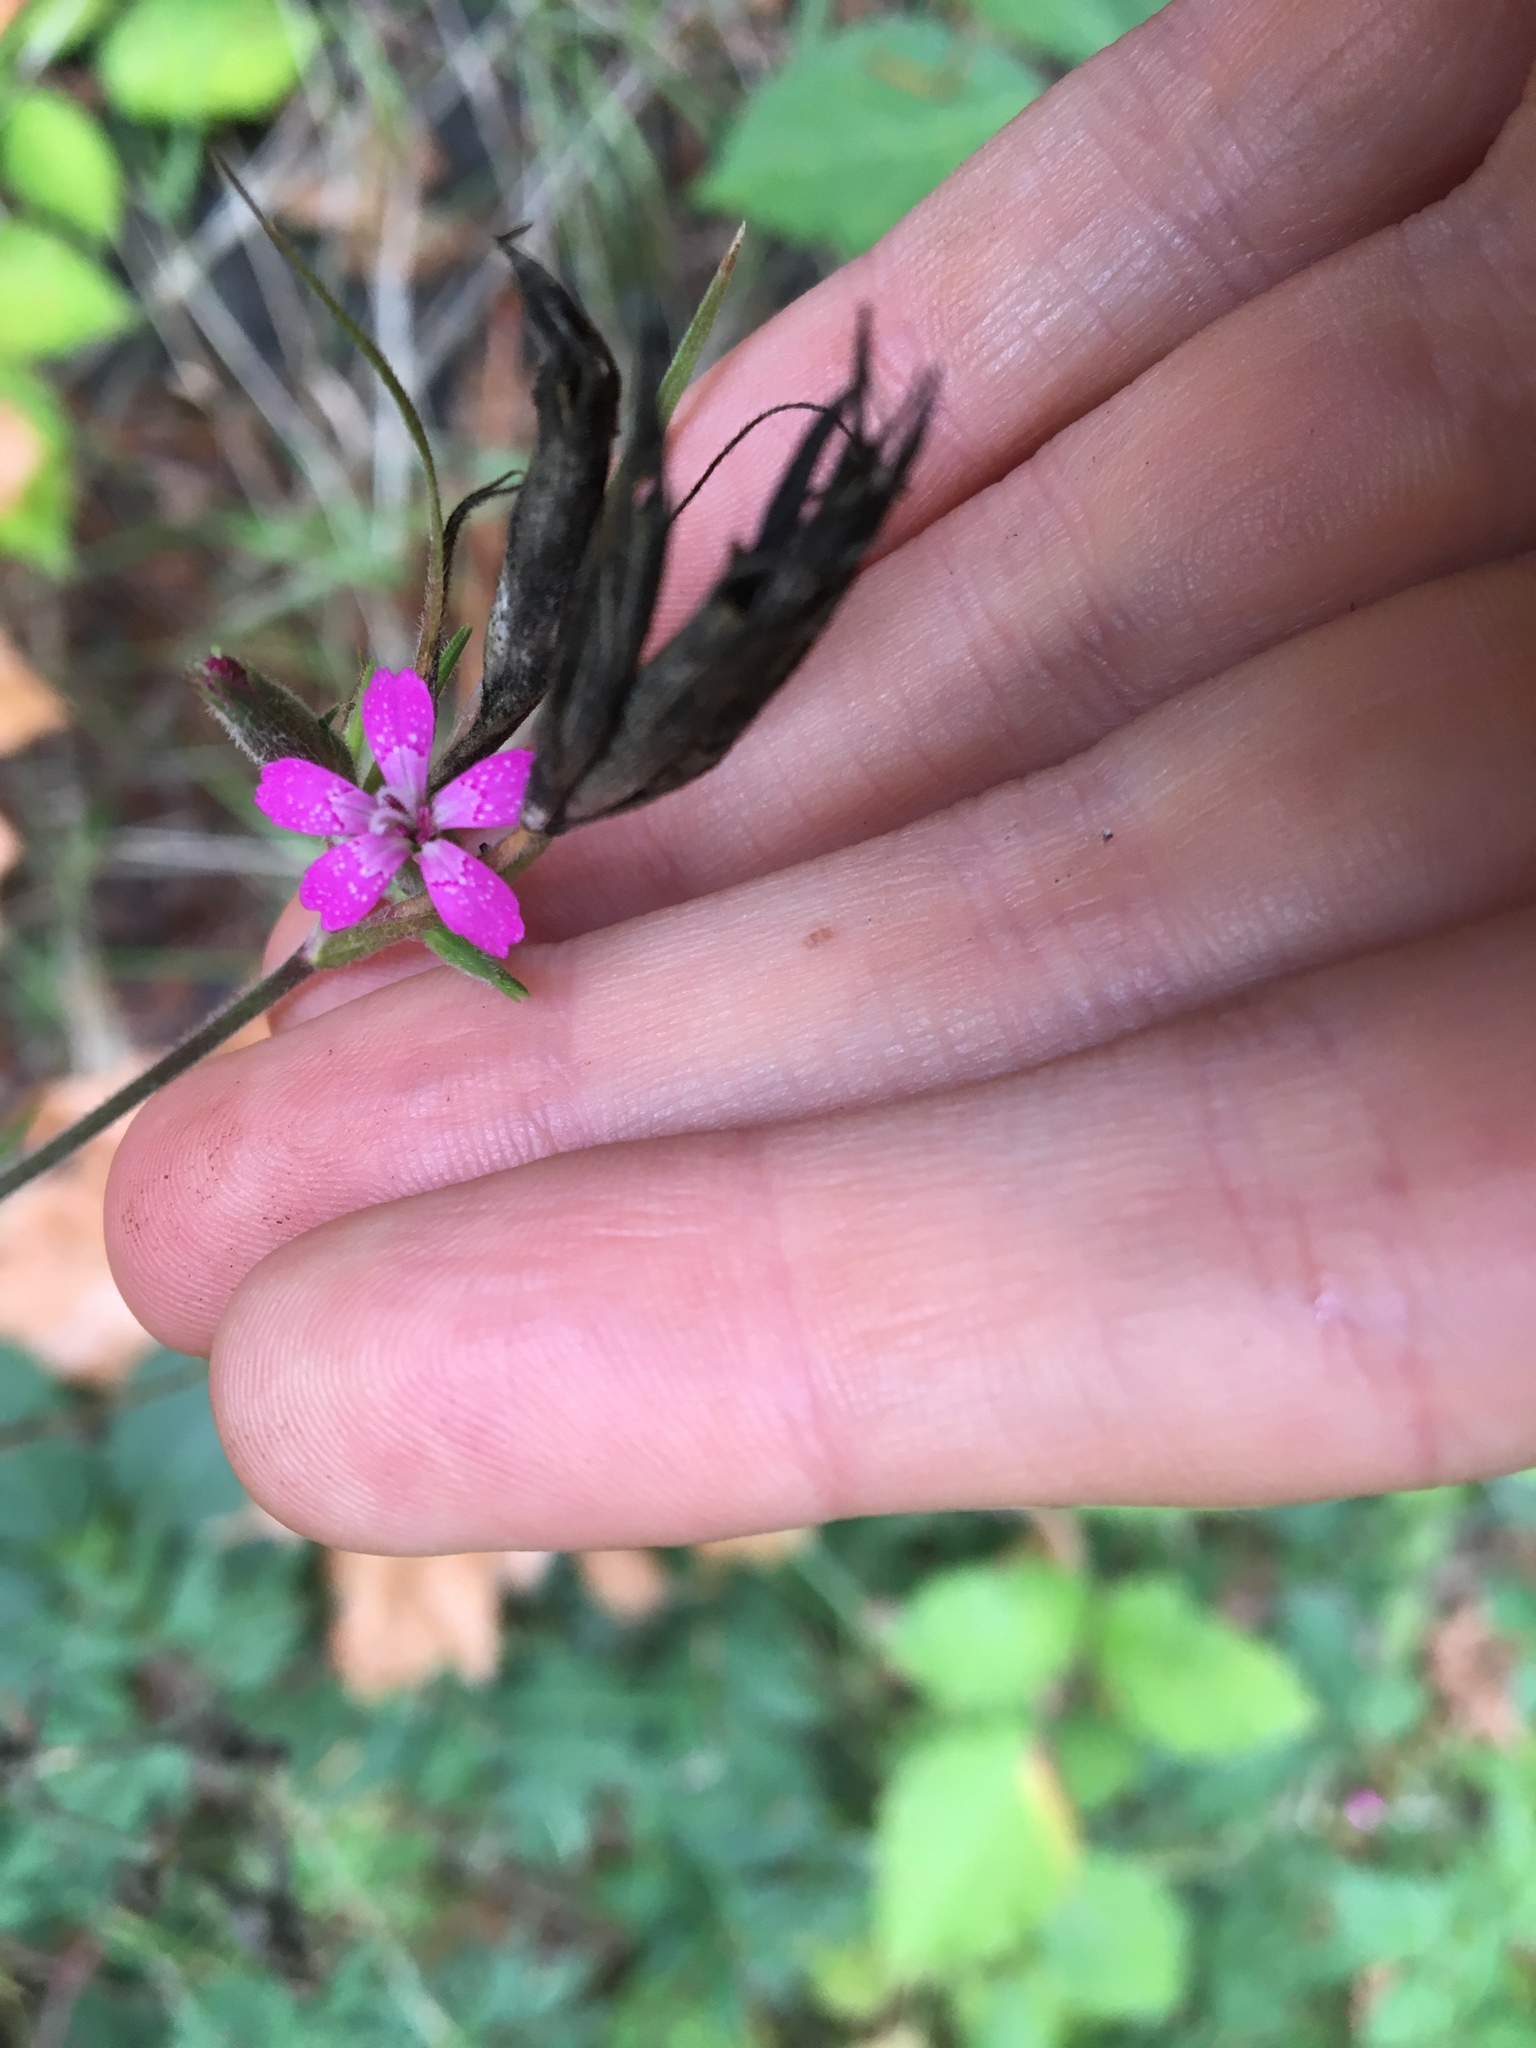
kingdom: Plantae
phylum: Tracheophyta
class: Magnoliopsida
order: Caryophyllales
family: Caryophyllaceae
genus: Dianthus
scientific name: Dianthus armeria
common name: Deptford pink
